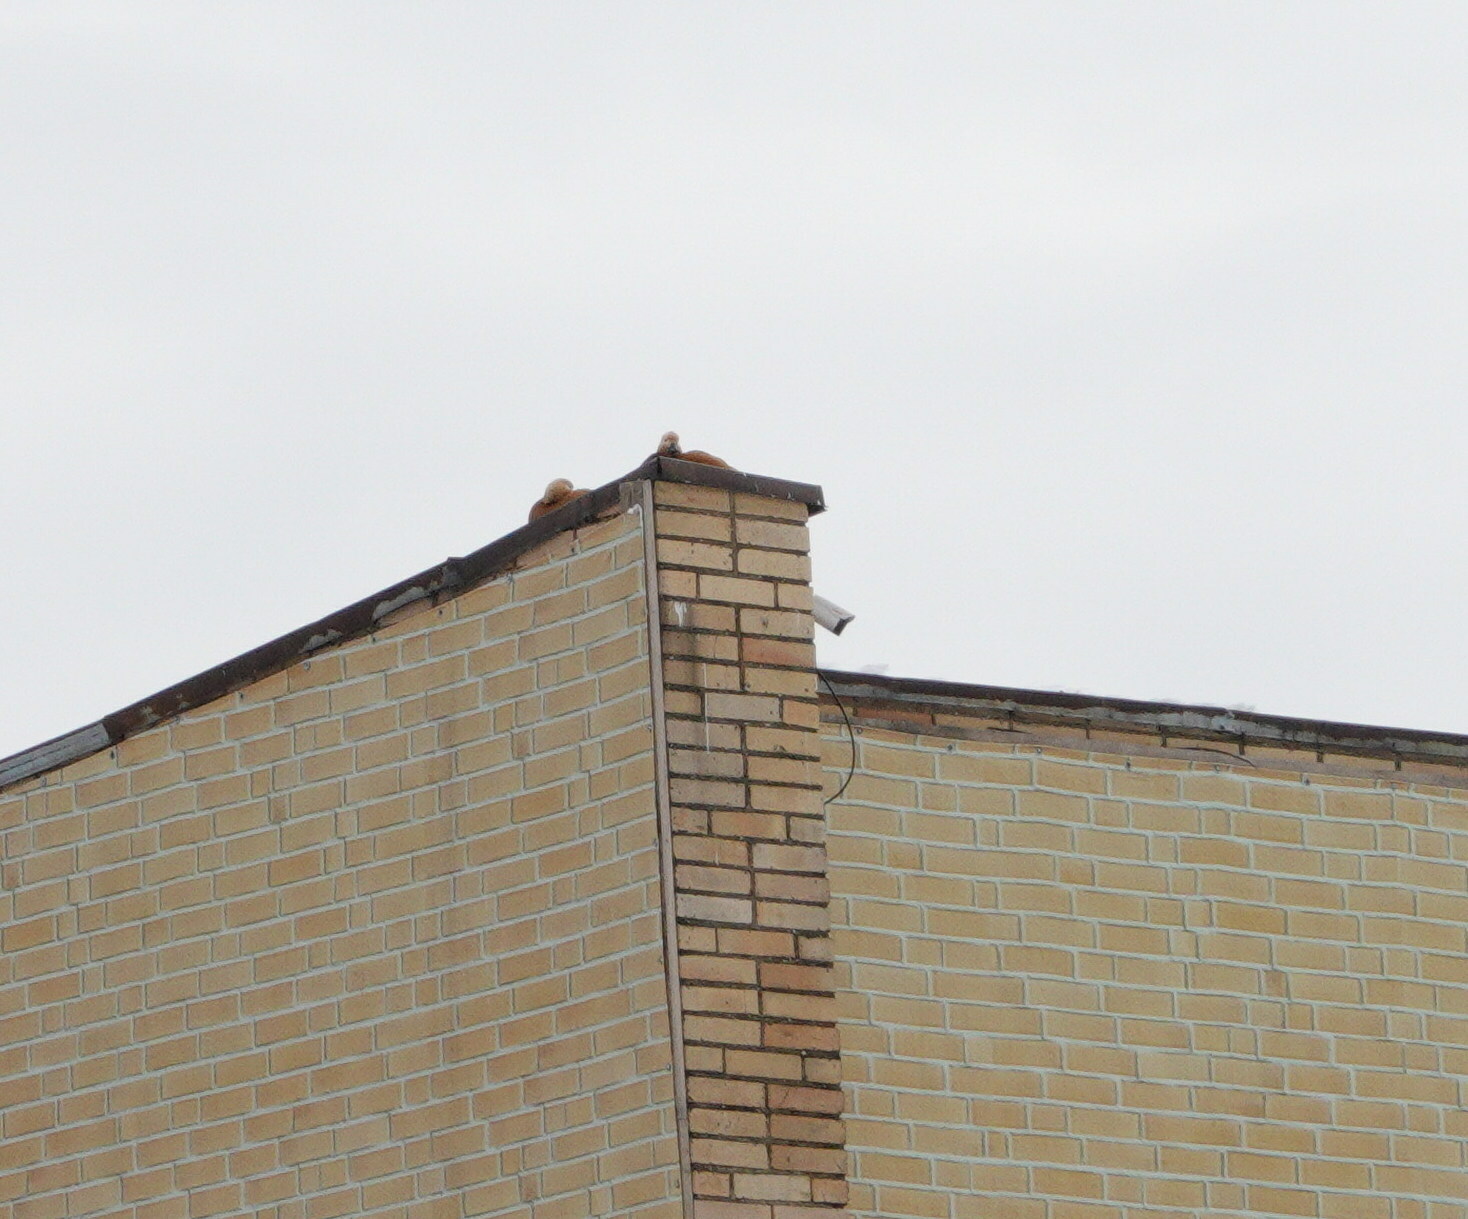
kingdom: Animalia
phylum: Chordata
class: Aves
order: Anseriformes
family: Anatidae
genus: Tadorna
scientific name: Tadorna ferruginea
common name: Ruddy shelduck
